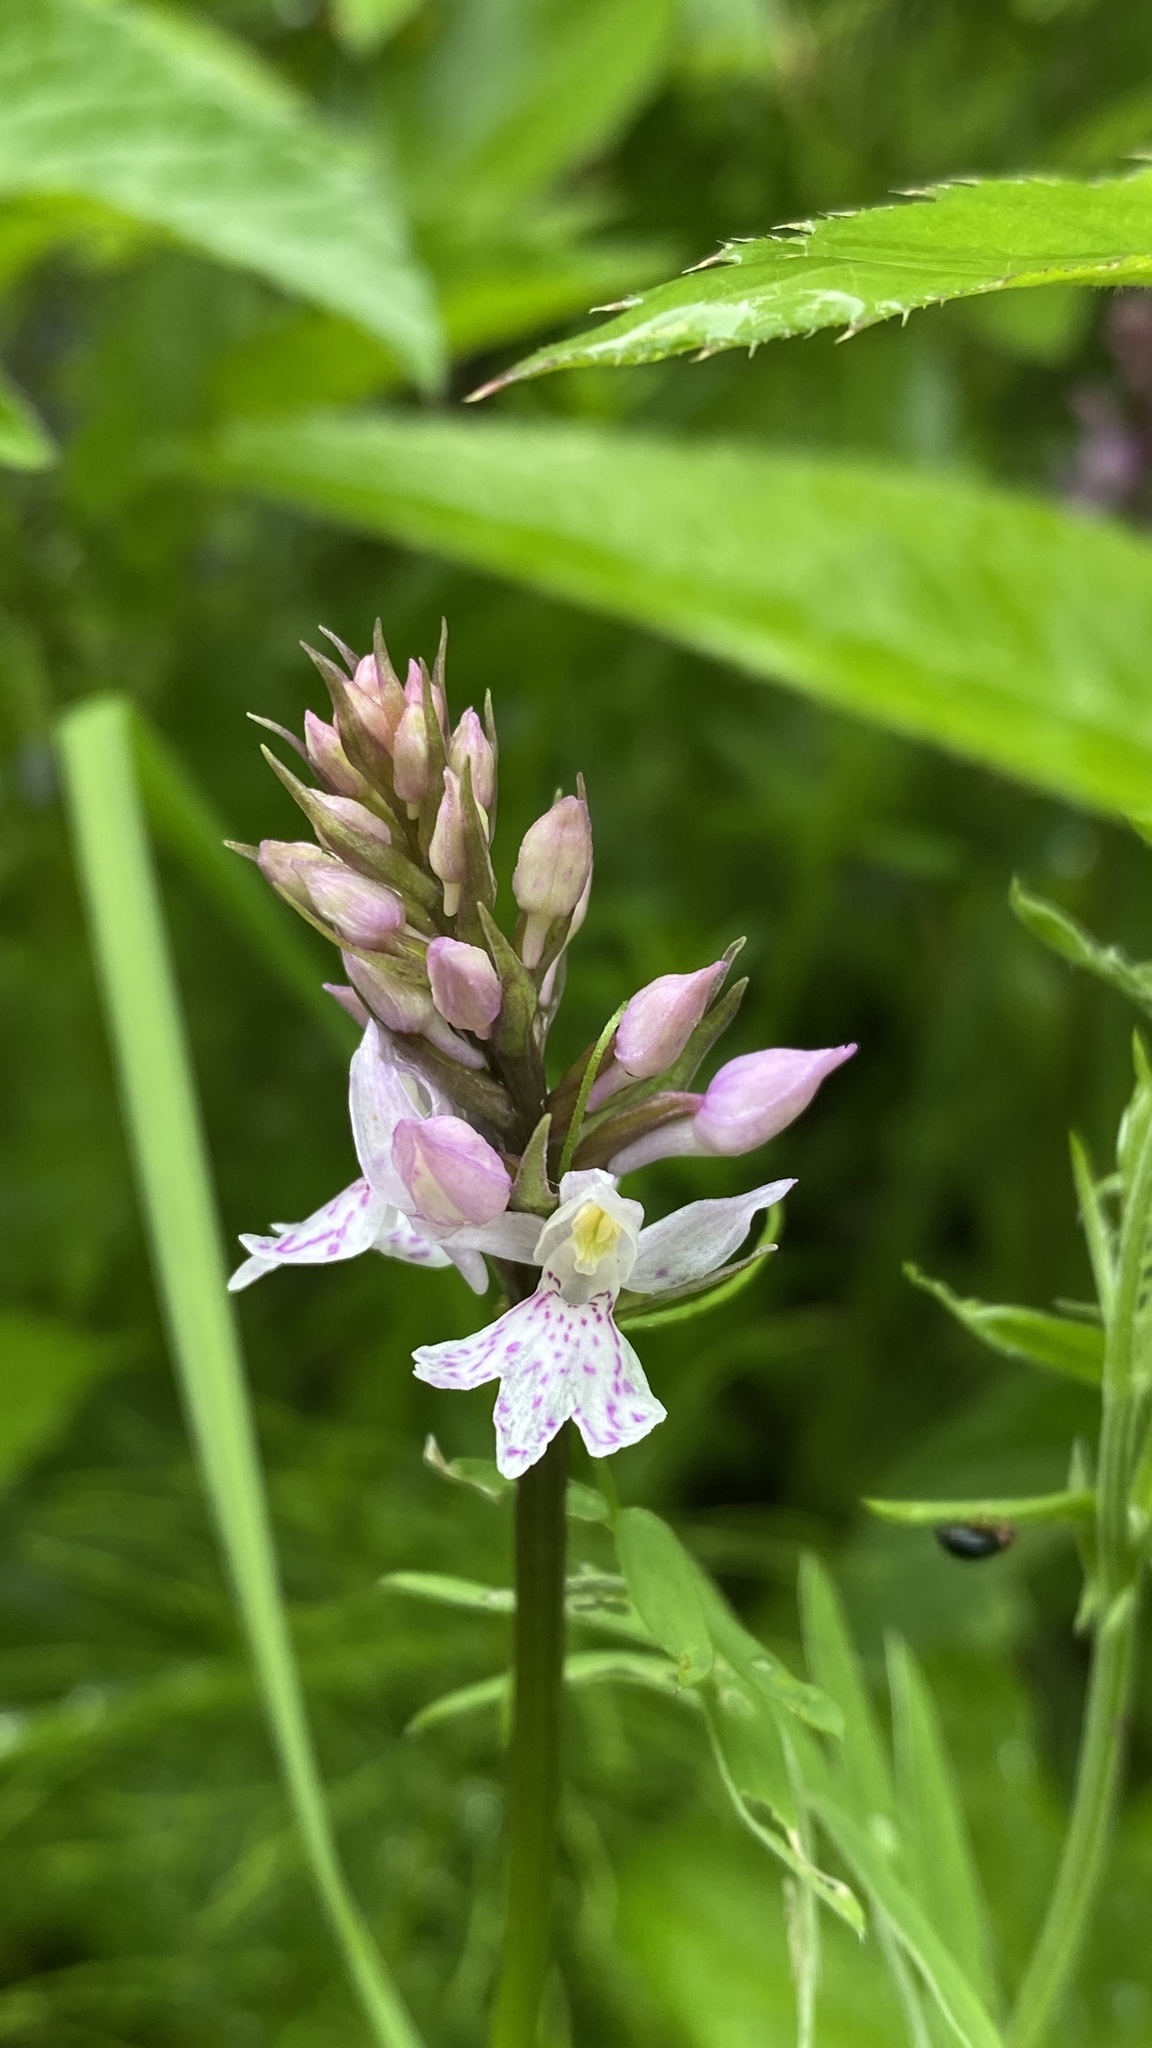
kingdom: Plantae
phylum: Tracheophyta
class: Liliopsida
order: Asparagales
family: Orchidaceae
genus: Dactylorhiza
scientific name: Dactylorhiza maculata
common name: Heath spotted-orchid
